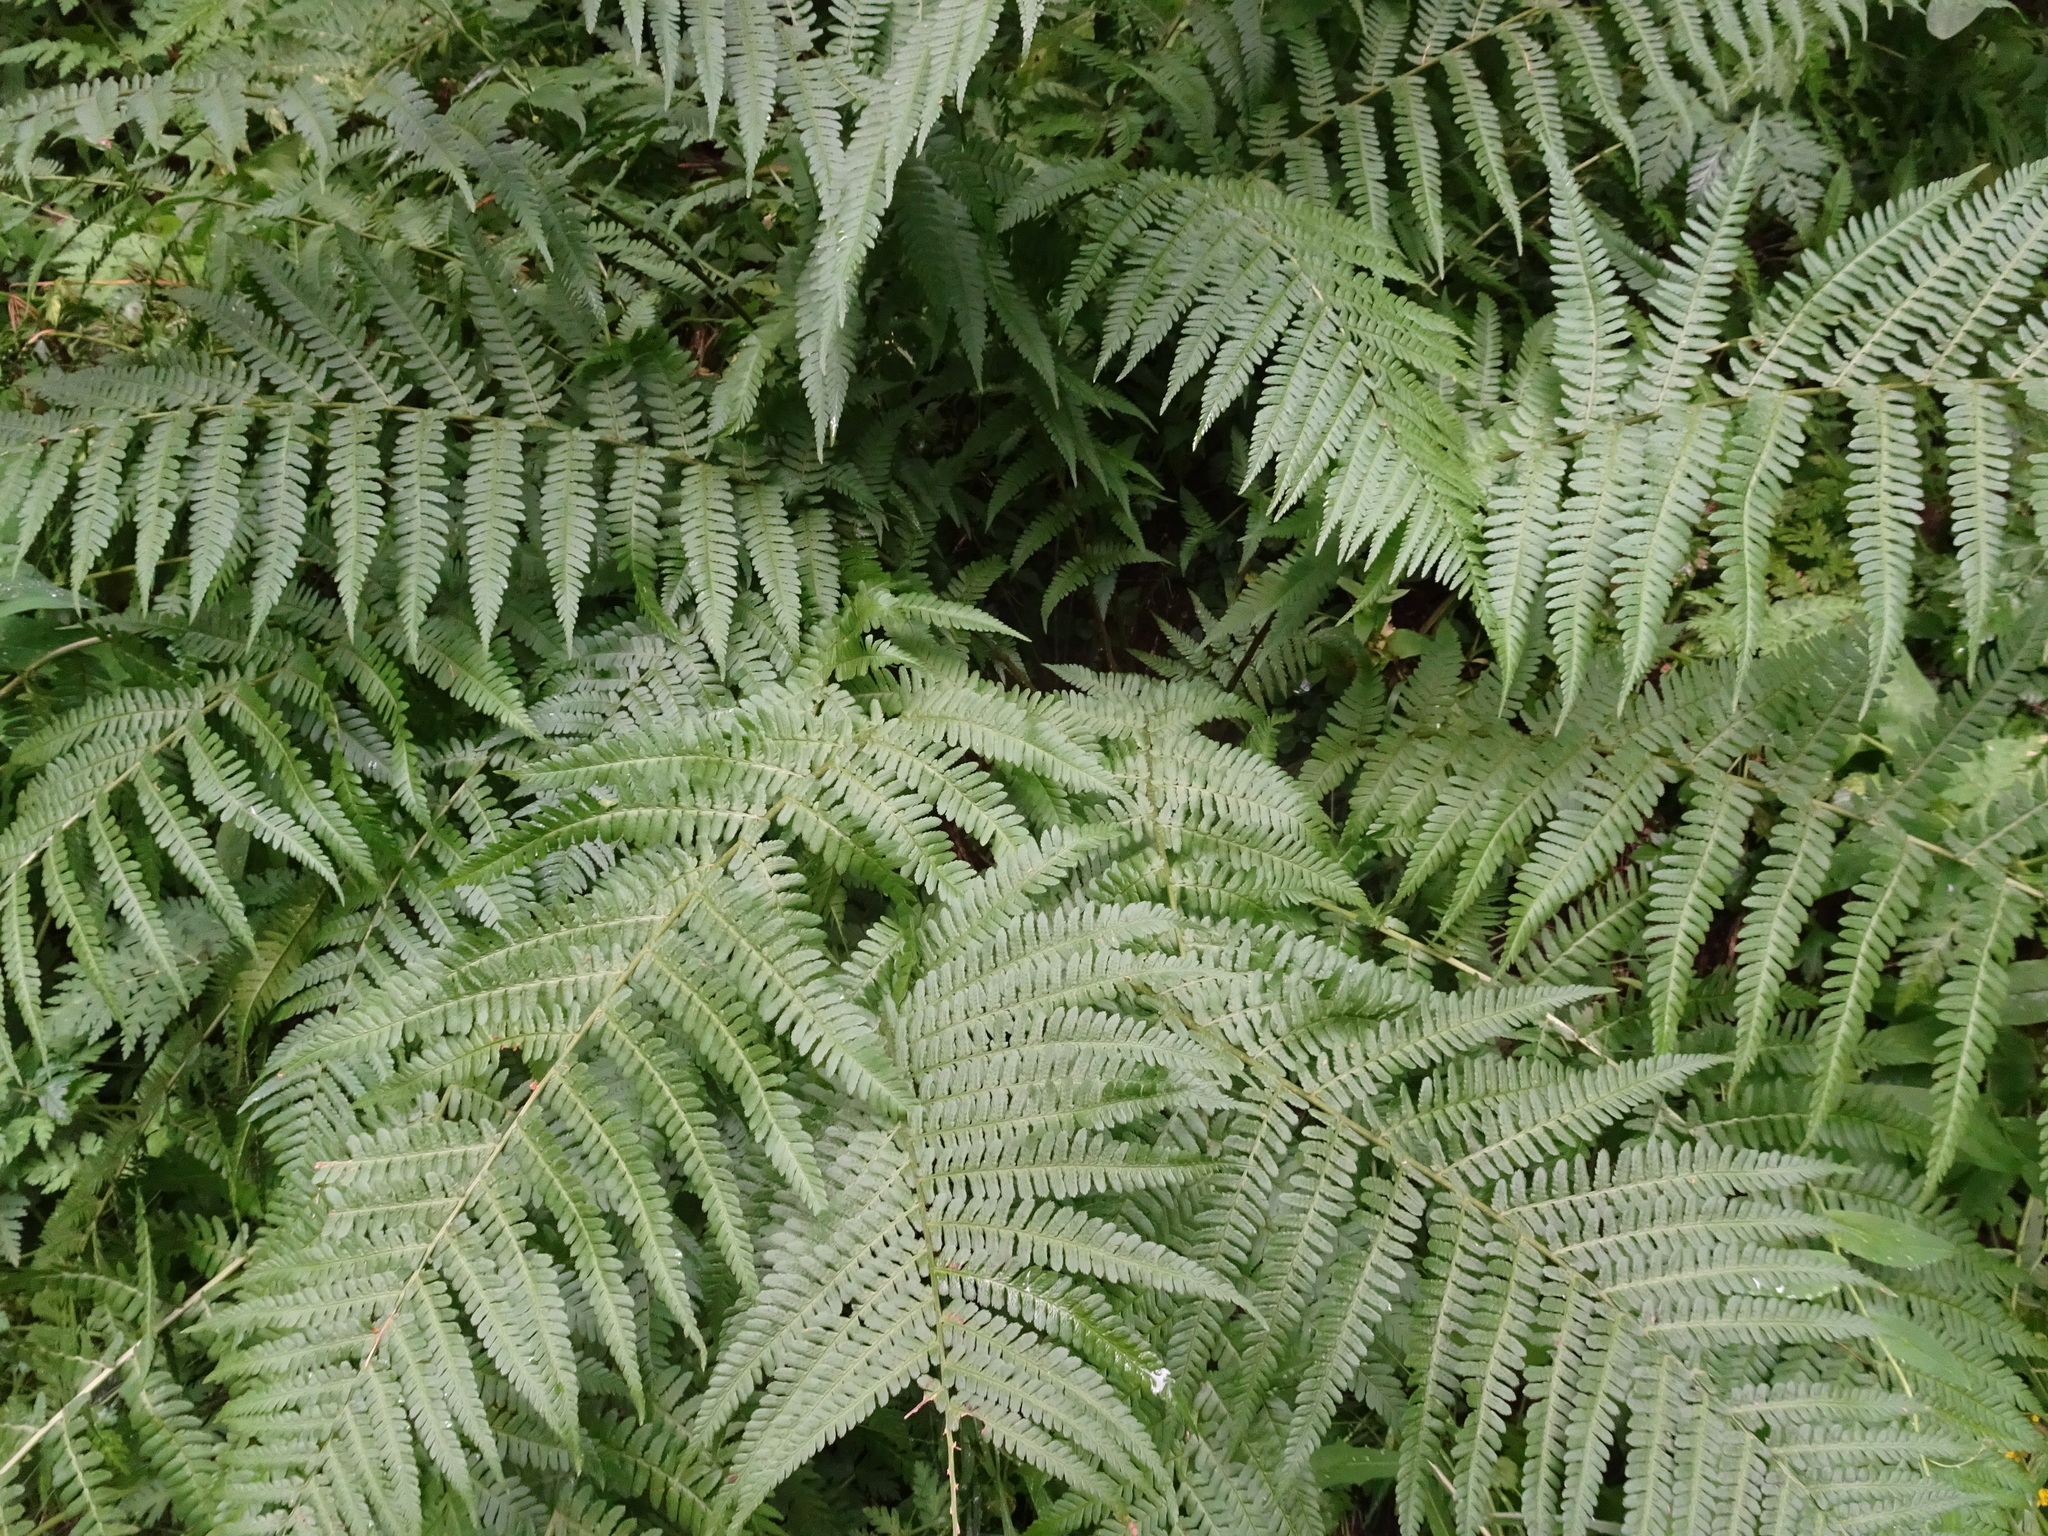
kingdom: Plantae
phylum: Tracheophyta
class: Polypodiopsida
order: Polypodiales
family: Dryopteridaceae
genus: Dryopteris
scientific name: Dryopteris filix-mas
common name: Male fern
